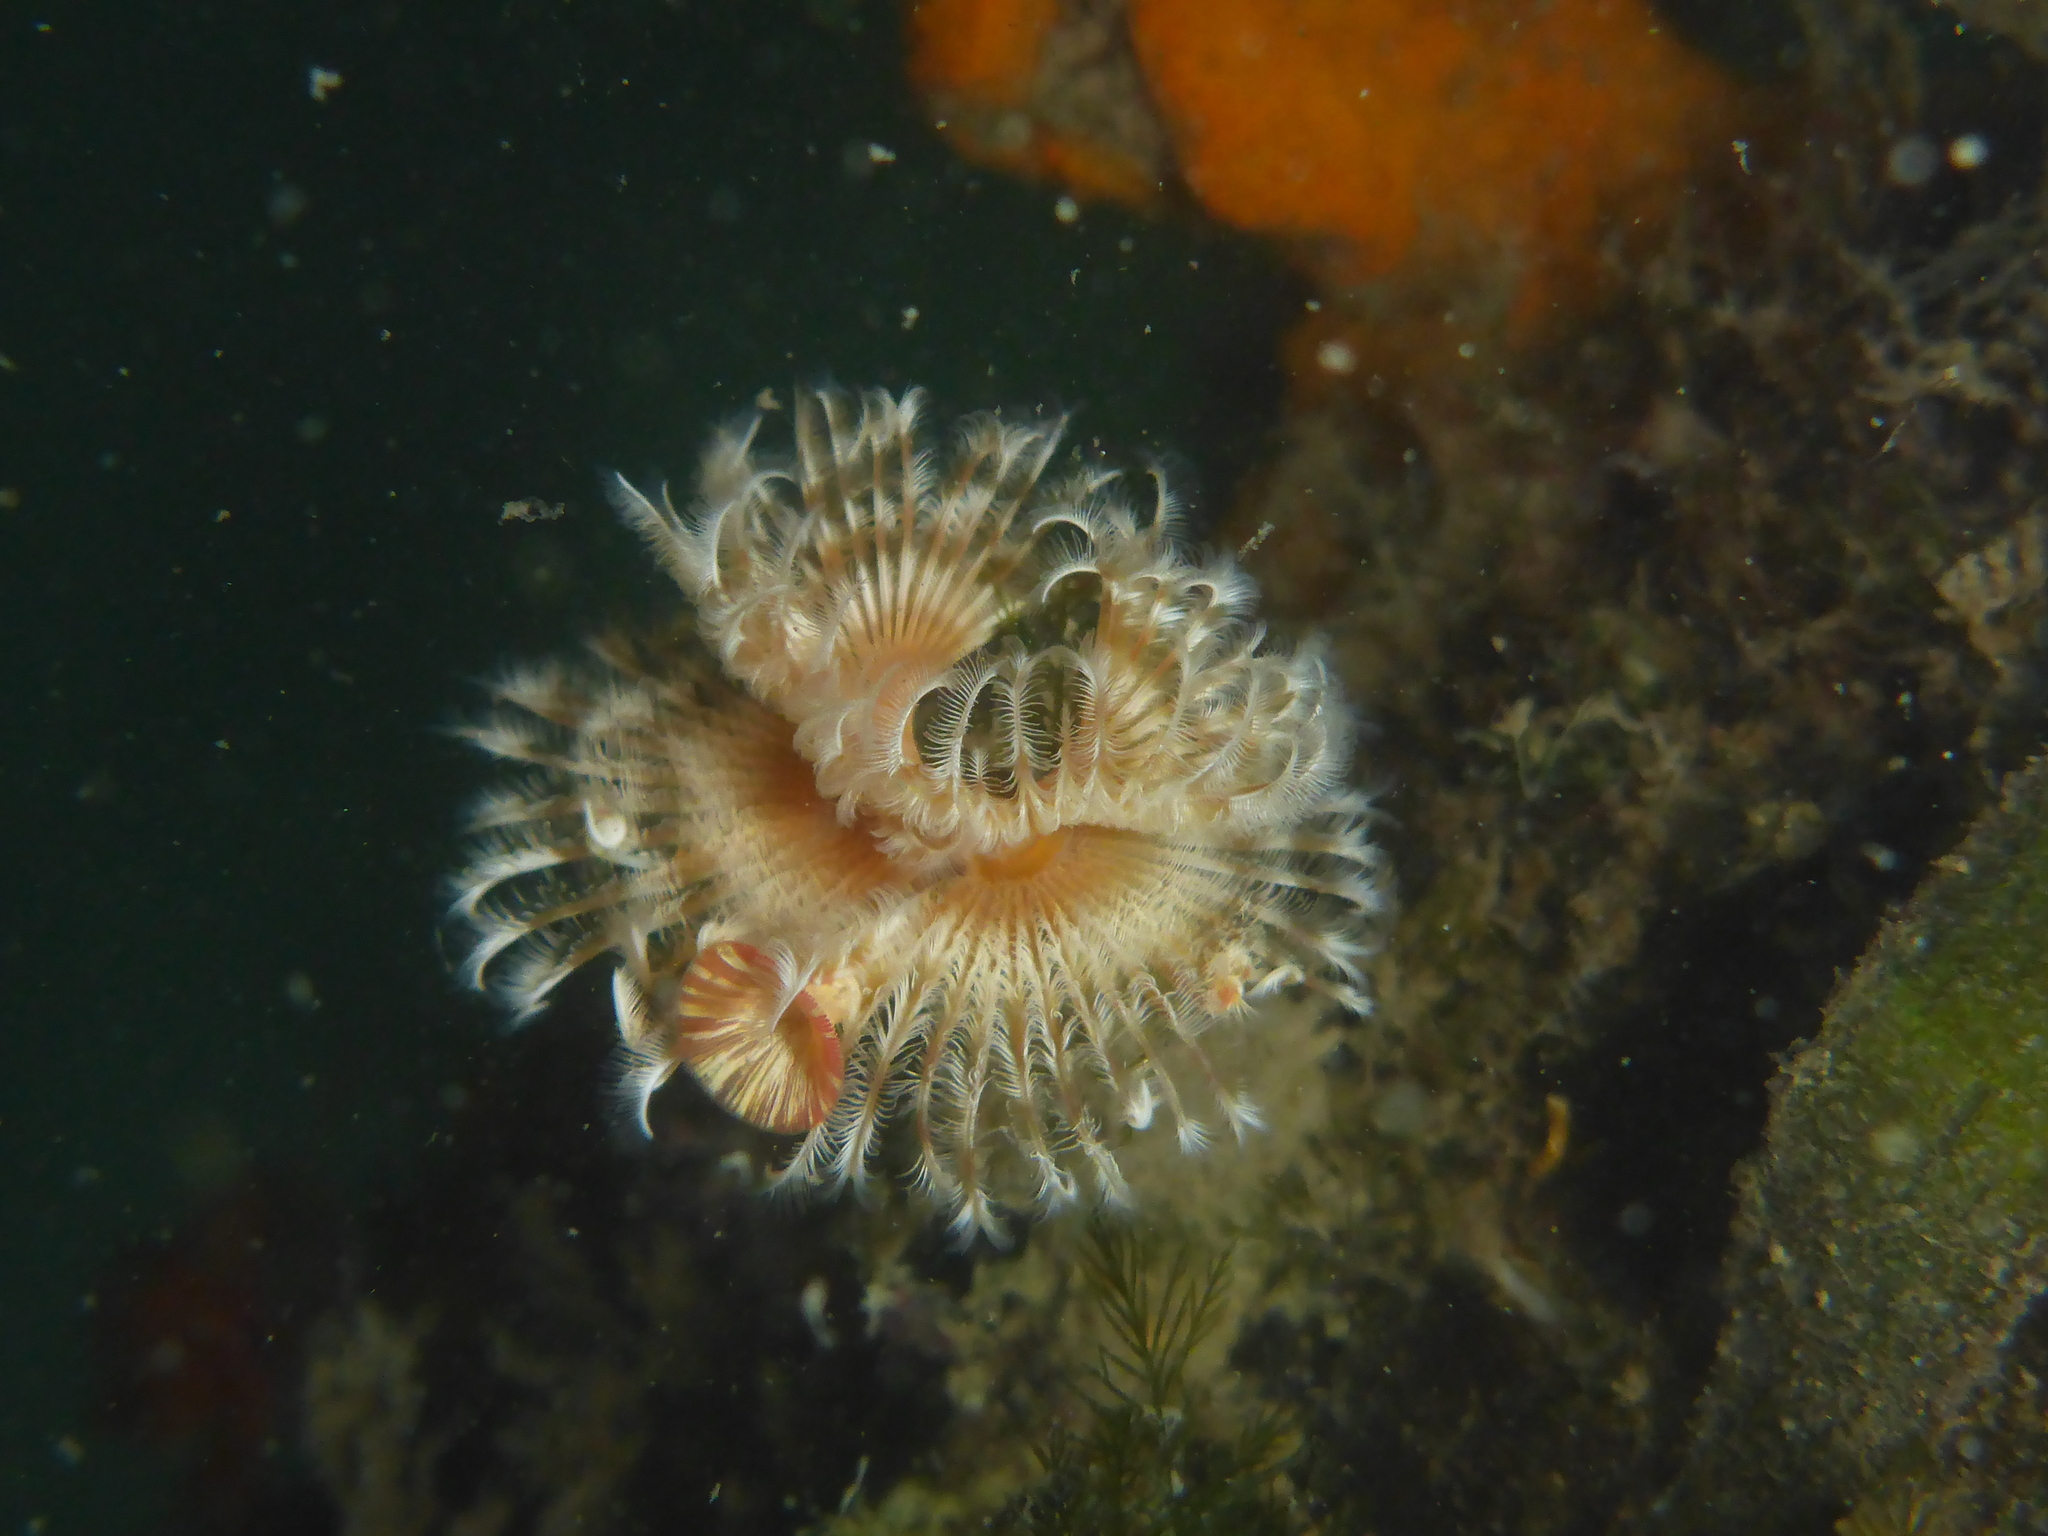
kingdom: Animalia
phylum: Annelida
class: Polychaeta
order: Sabellida
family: Serpulidae
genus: Serpula
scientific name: Serpula columbiana
